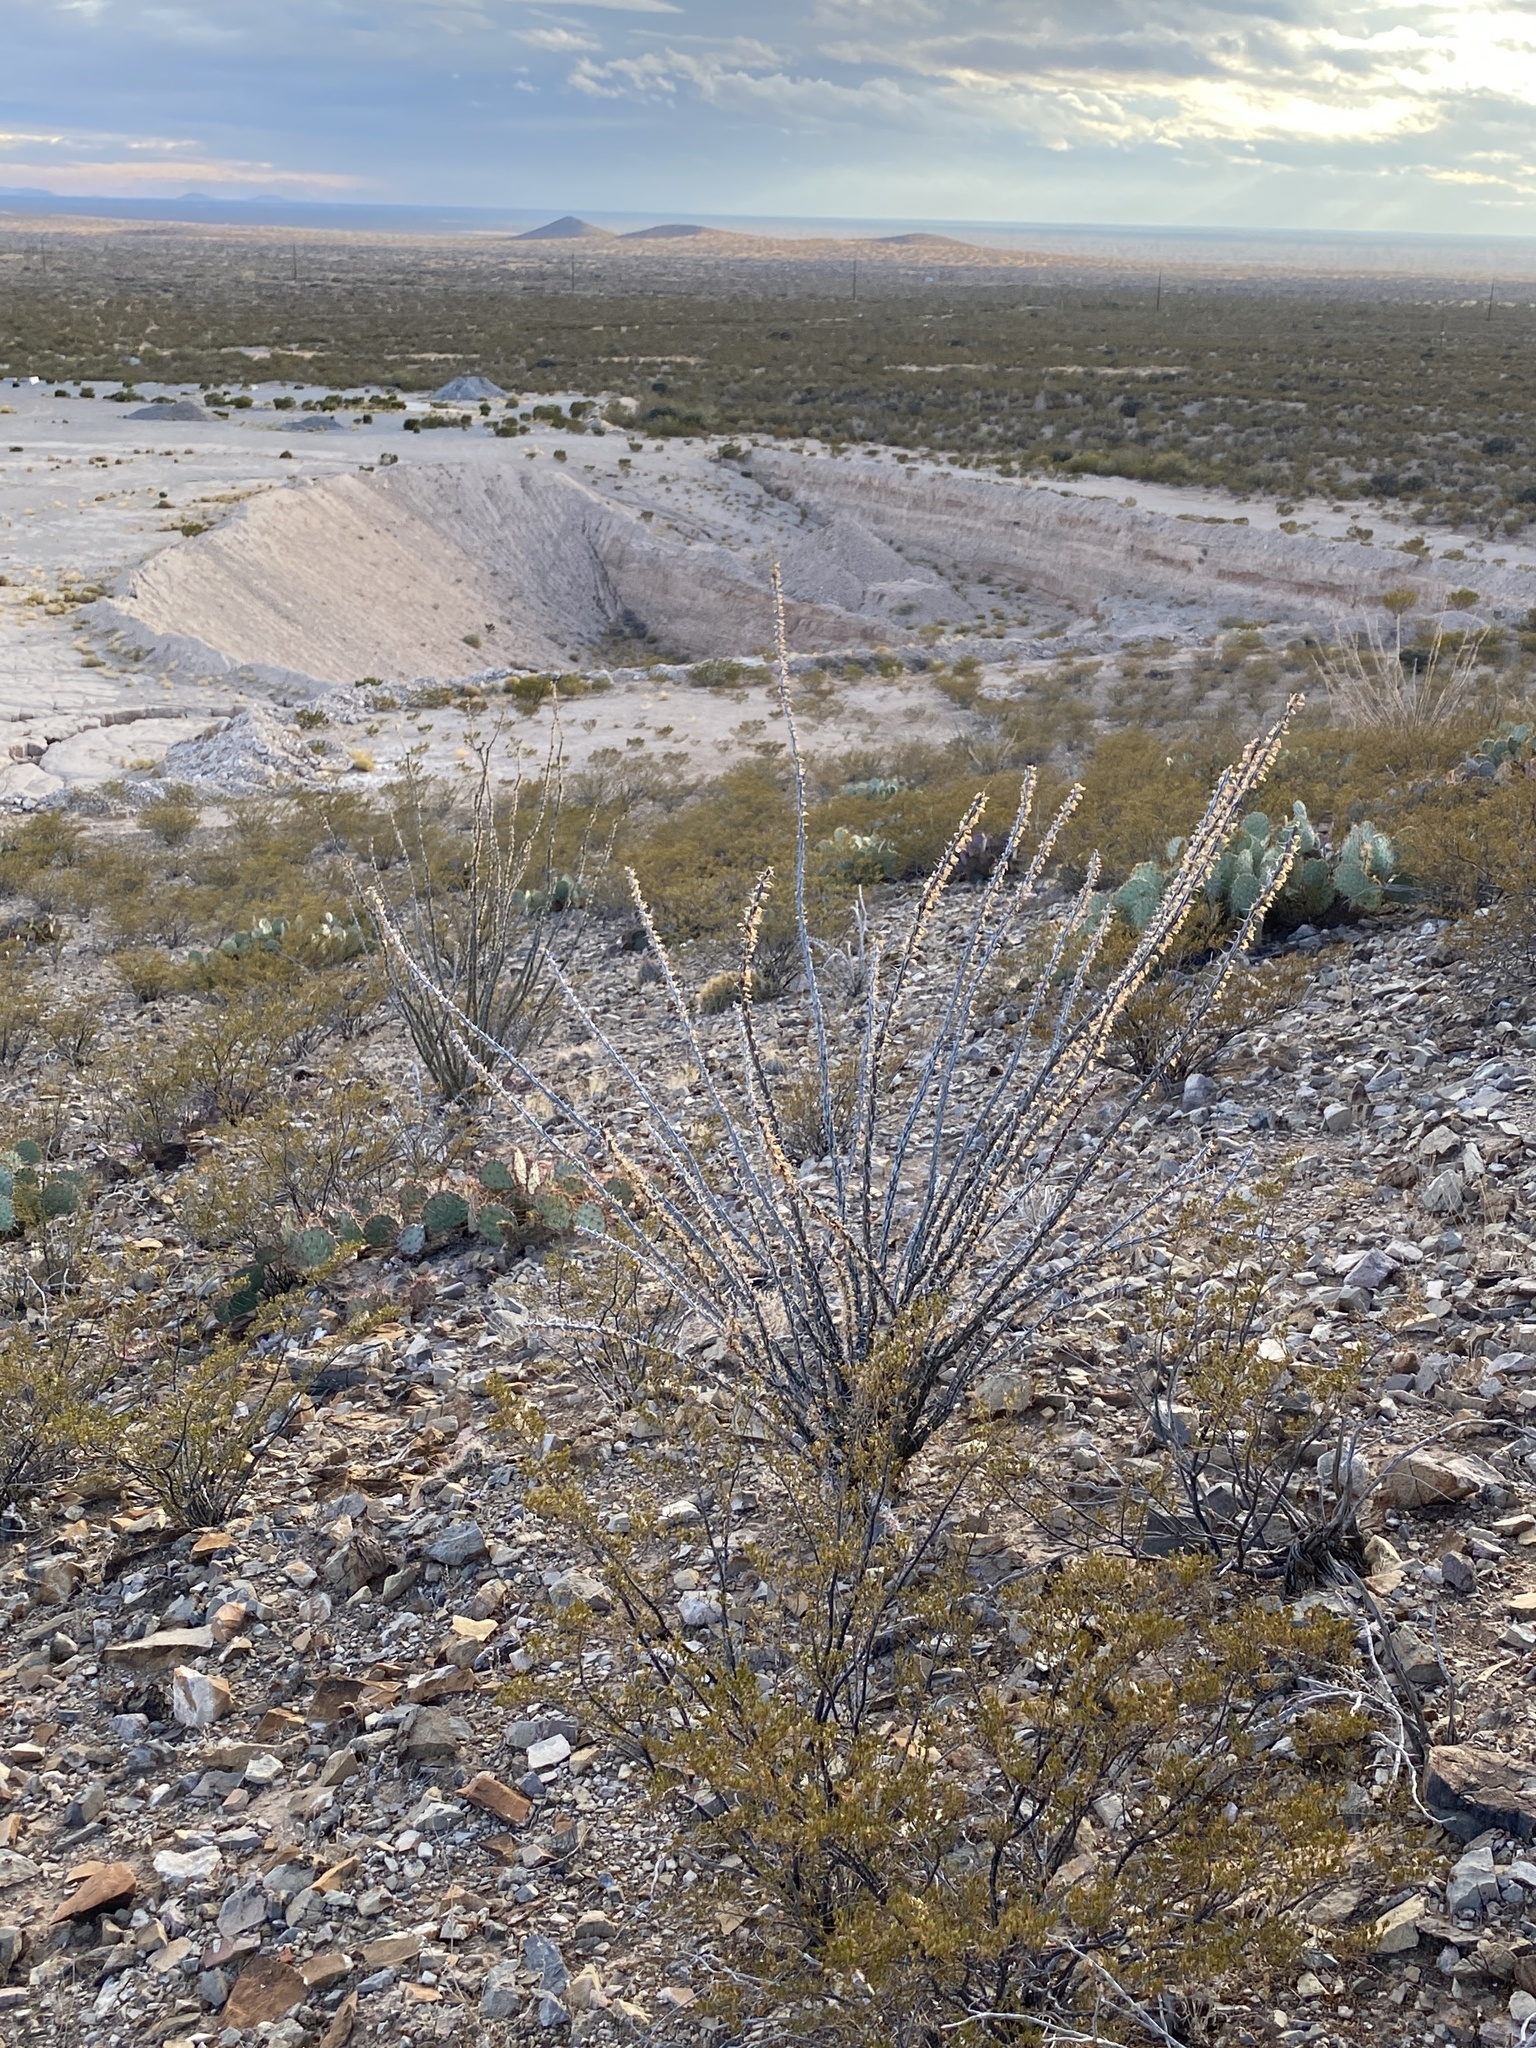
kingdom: Plantae
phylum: Tracheophyta
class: Magnoliopsida
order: Ericales
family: Fouquieriaceae
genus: Fouquieria
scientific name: Fouquieria splendens
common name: Vine-cactus
